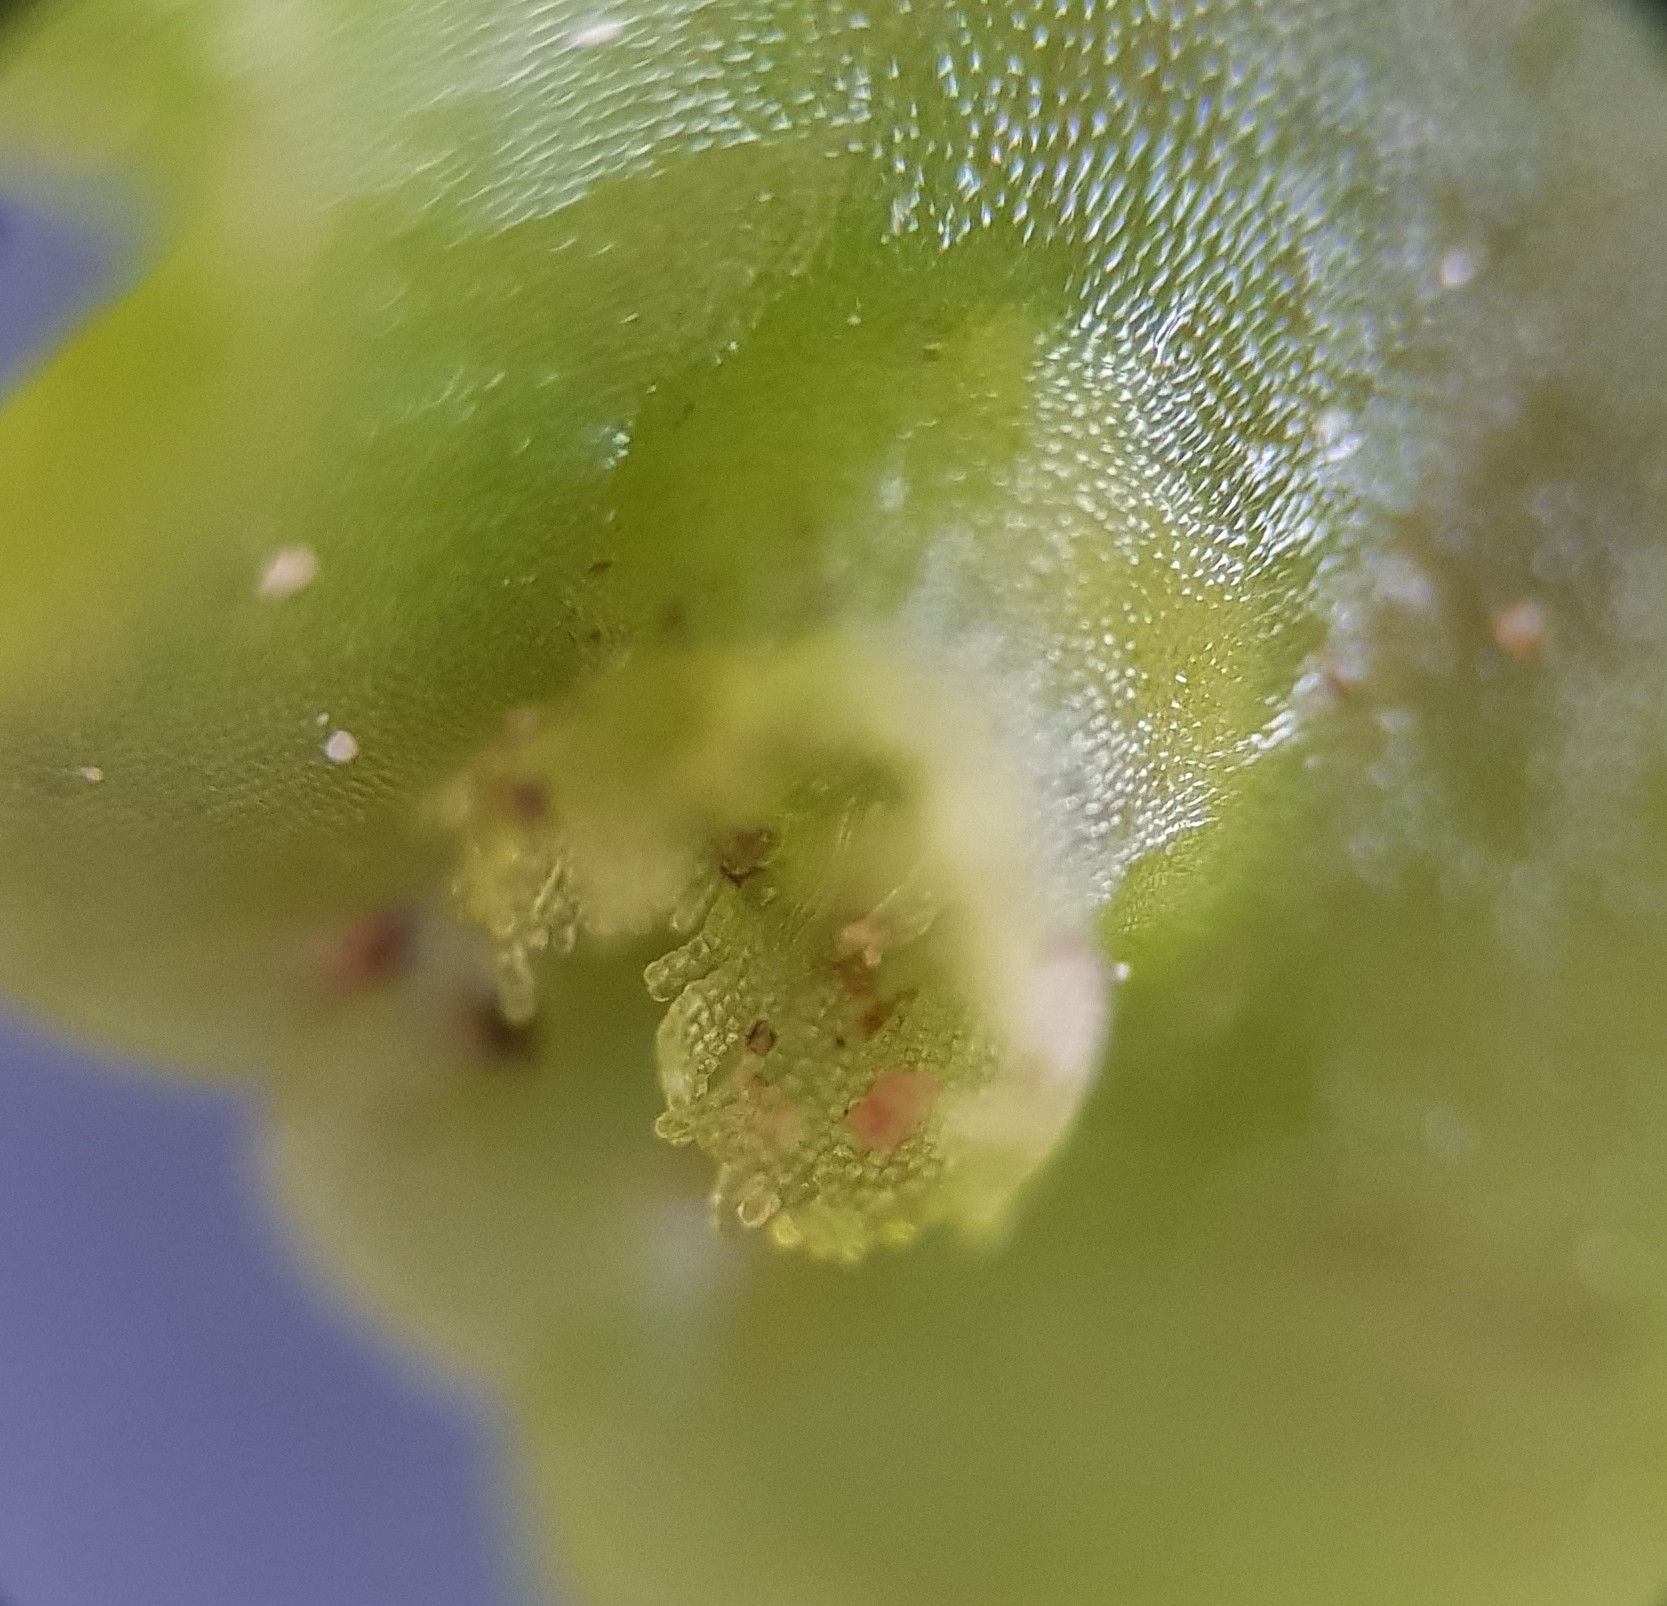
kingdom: Plantae
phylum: Marchantiophyta
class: Jungermanniopsida
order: Pelliales
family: Pelliaceae
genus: Apopellia
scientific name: Apopellia endiviifolia
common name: Endive pellia
